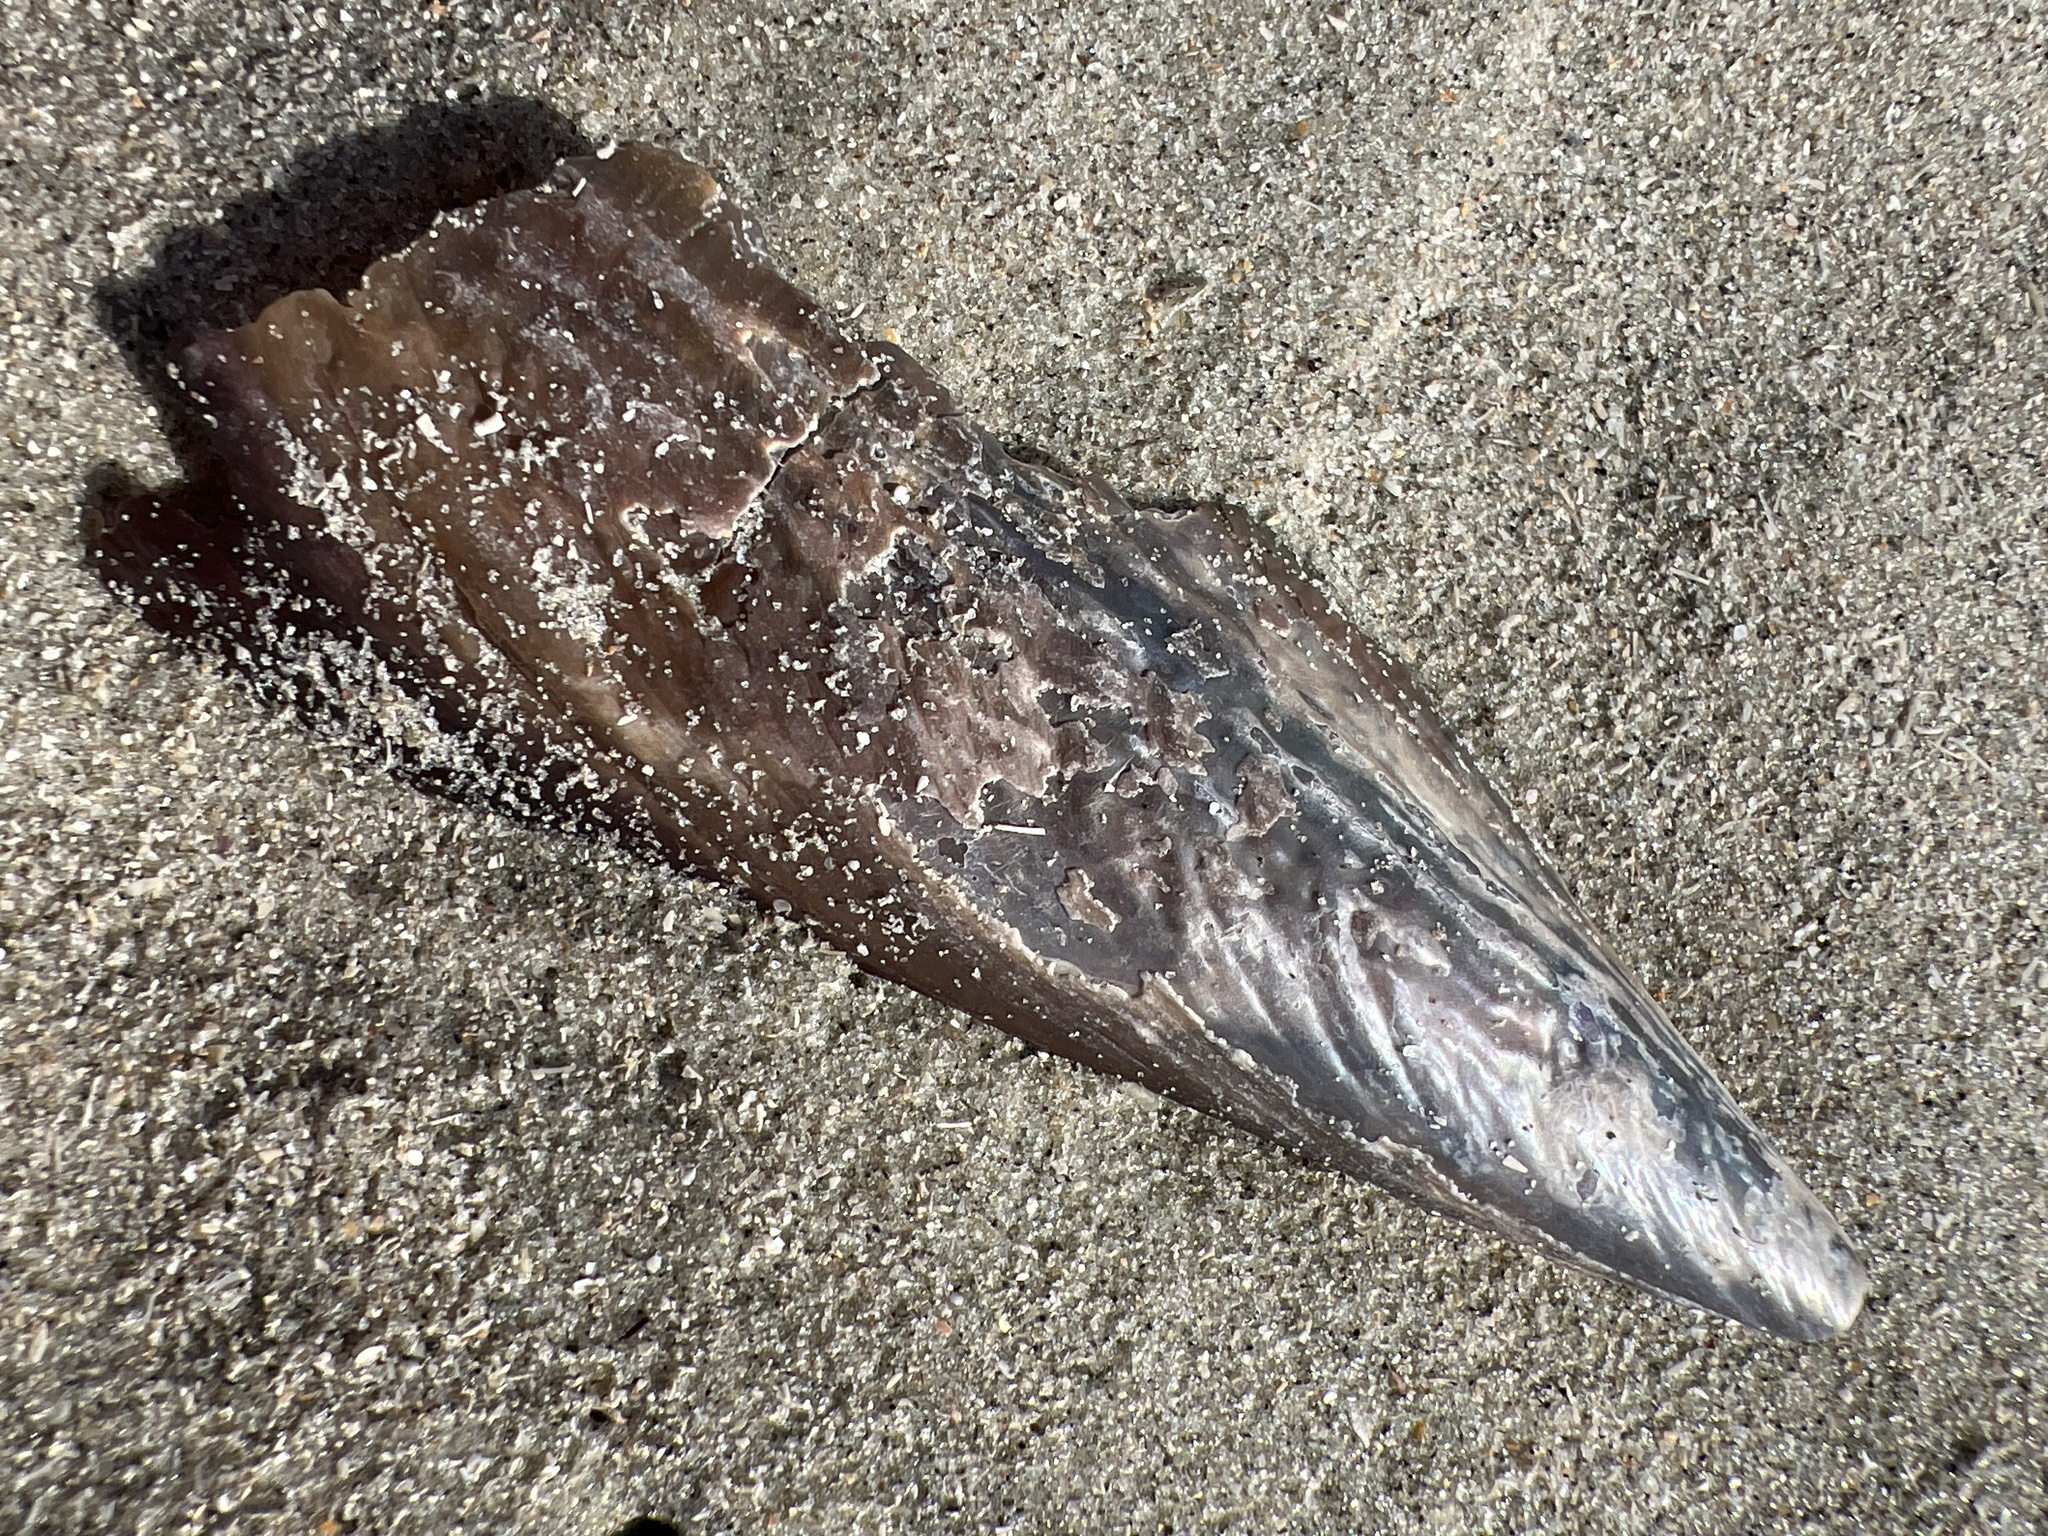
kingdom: Animalia
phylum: Mollusca
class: Bivalvia
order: Ostreida
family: Pinnidae
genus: Atrina
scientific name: Atrina rigida
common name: Stiff penshell
